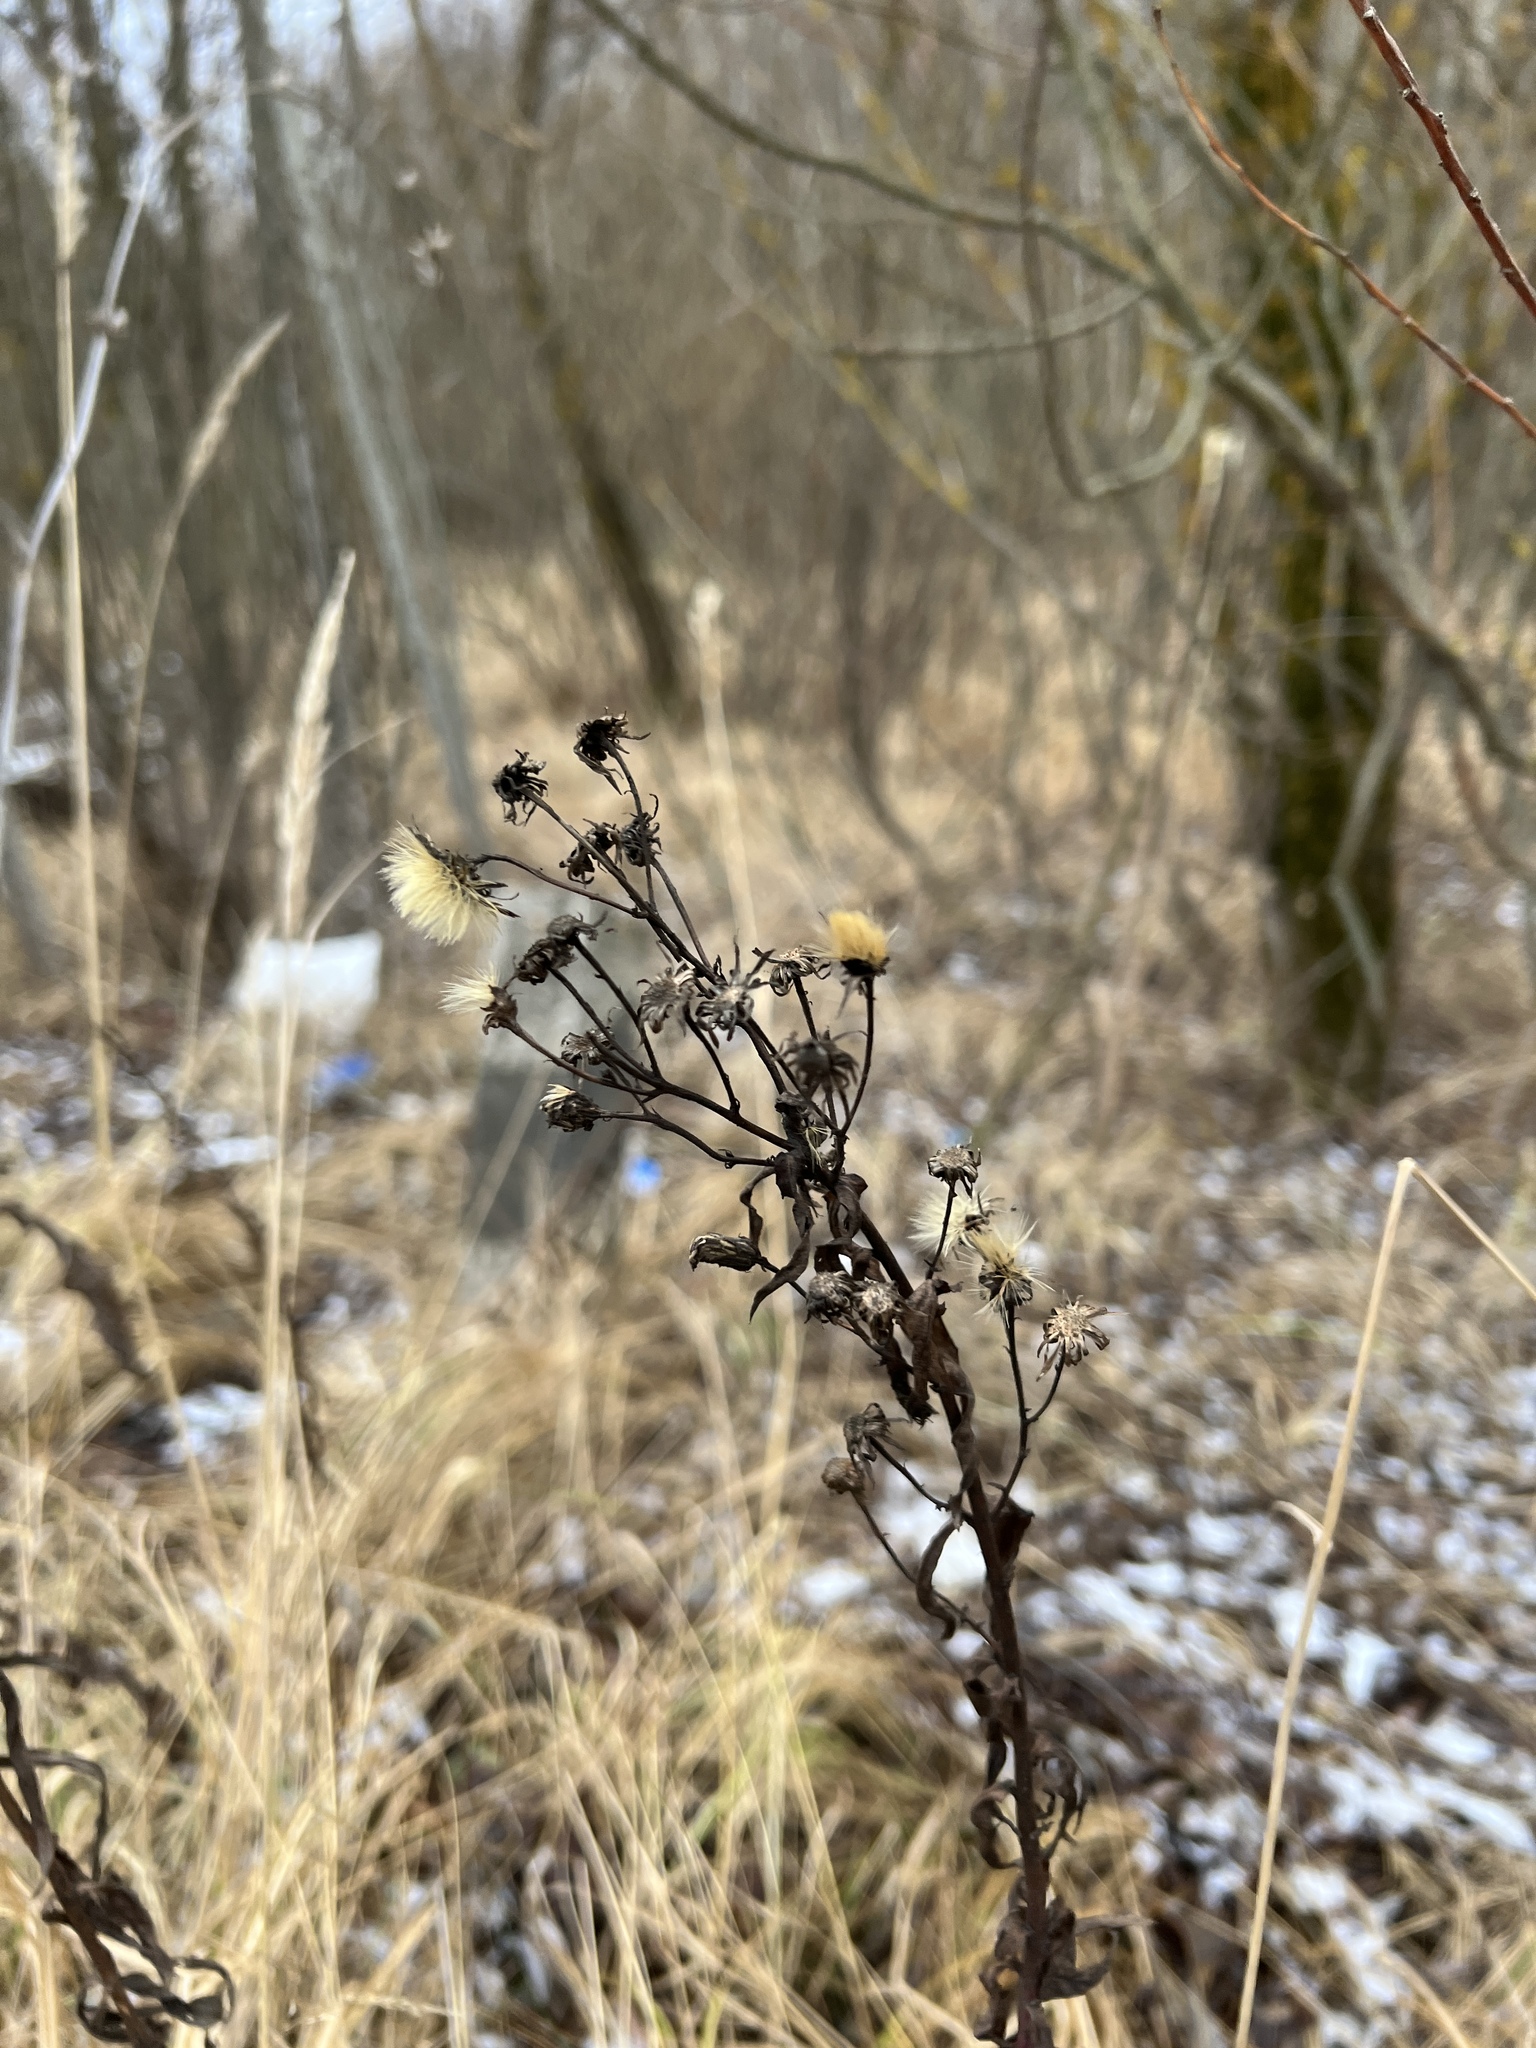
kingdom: Plantae
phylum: Tracheophyta
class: Magnoliopsida
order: Asterales
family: Asteraceae
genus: Hieracium
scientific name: Hieracium umbellatum
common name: Northern hawkweed
